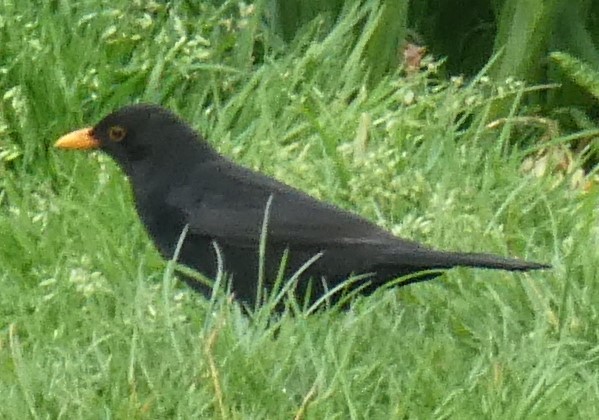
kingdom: Animalia
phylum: Chordata
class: Aves
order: Passeriformes
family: Turdidae
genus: Turdus
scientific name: Turdus merula
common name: Common blackbird
